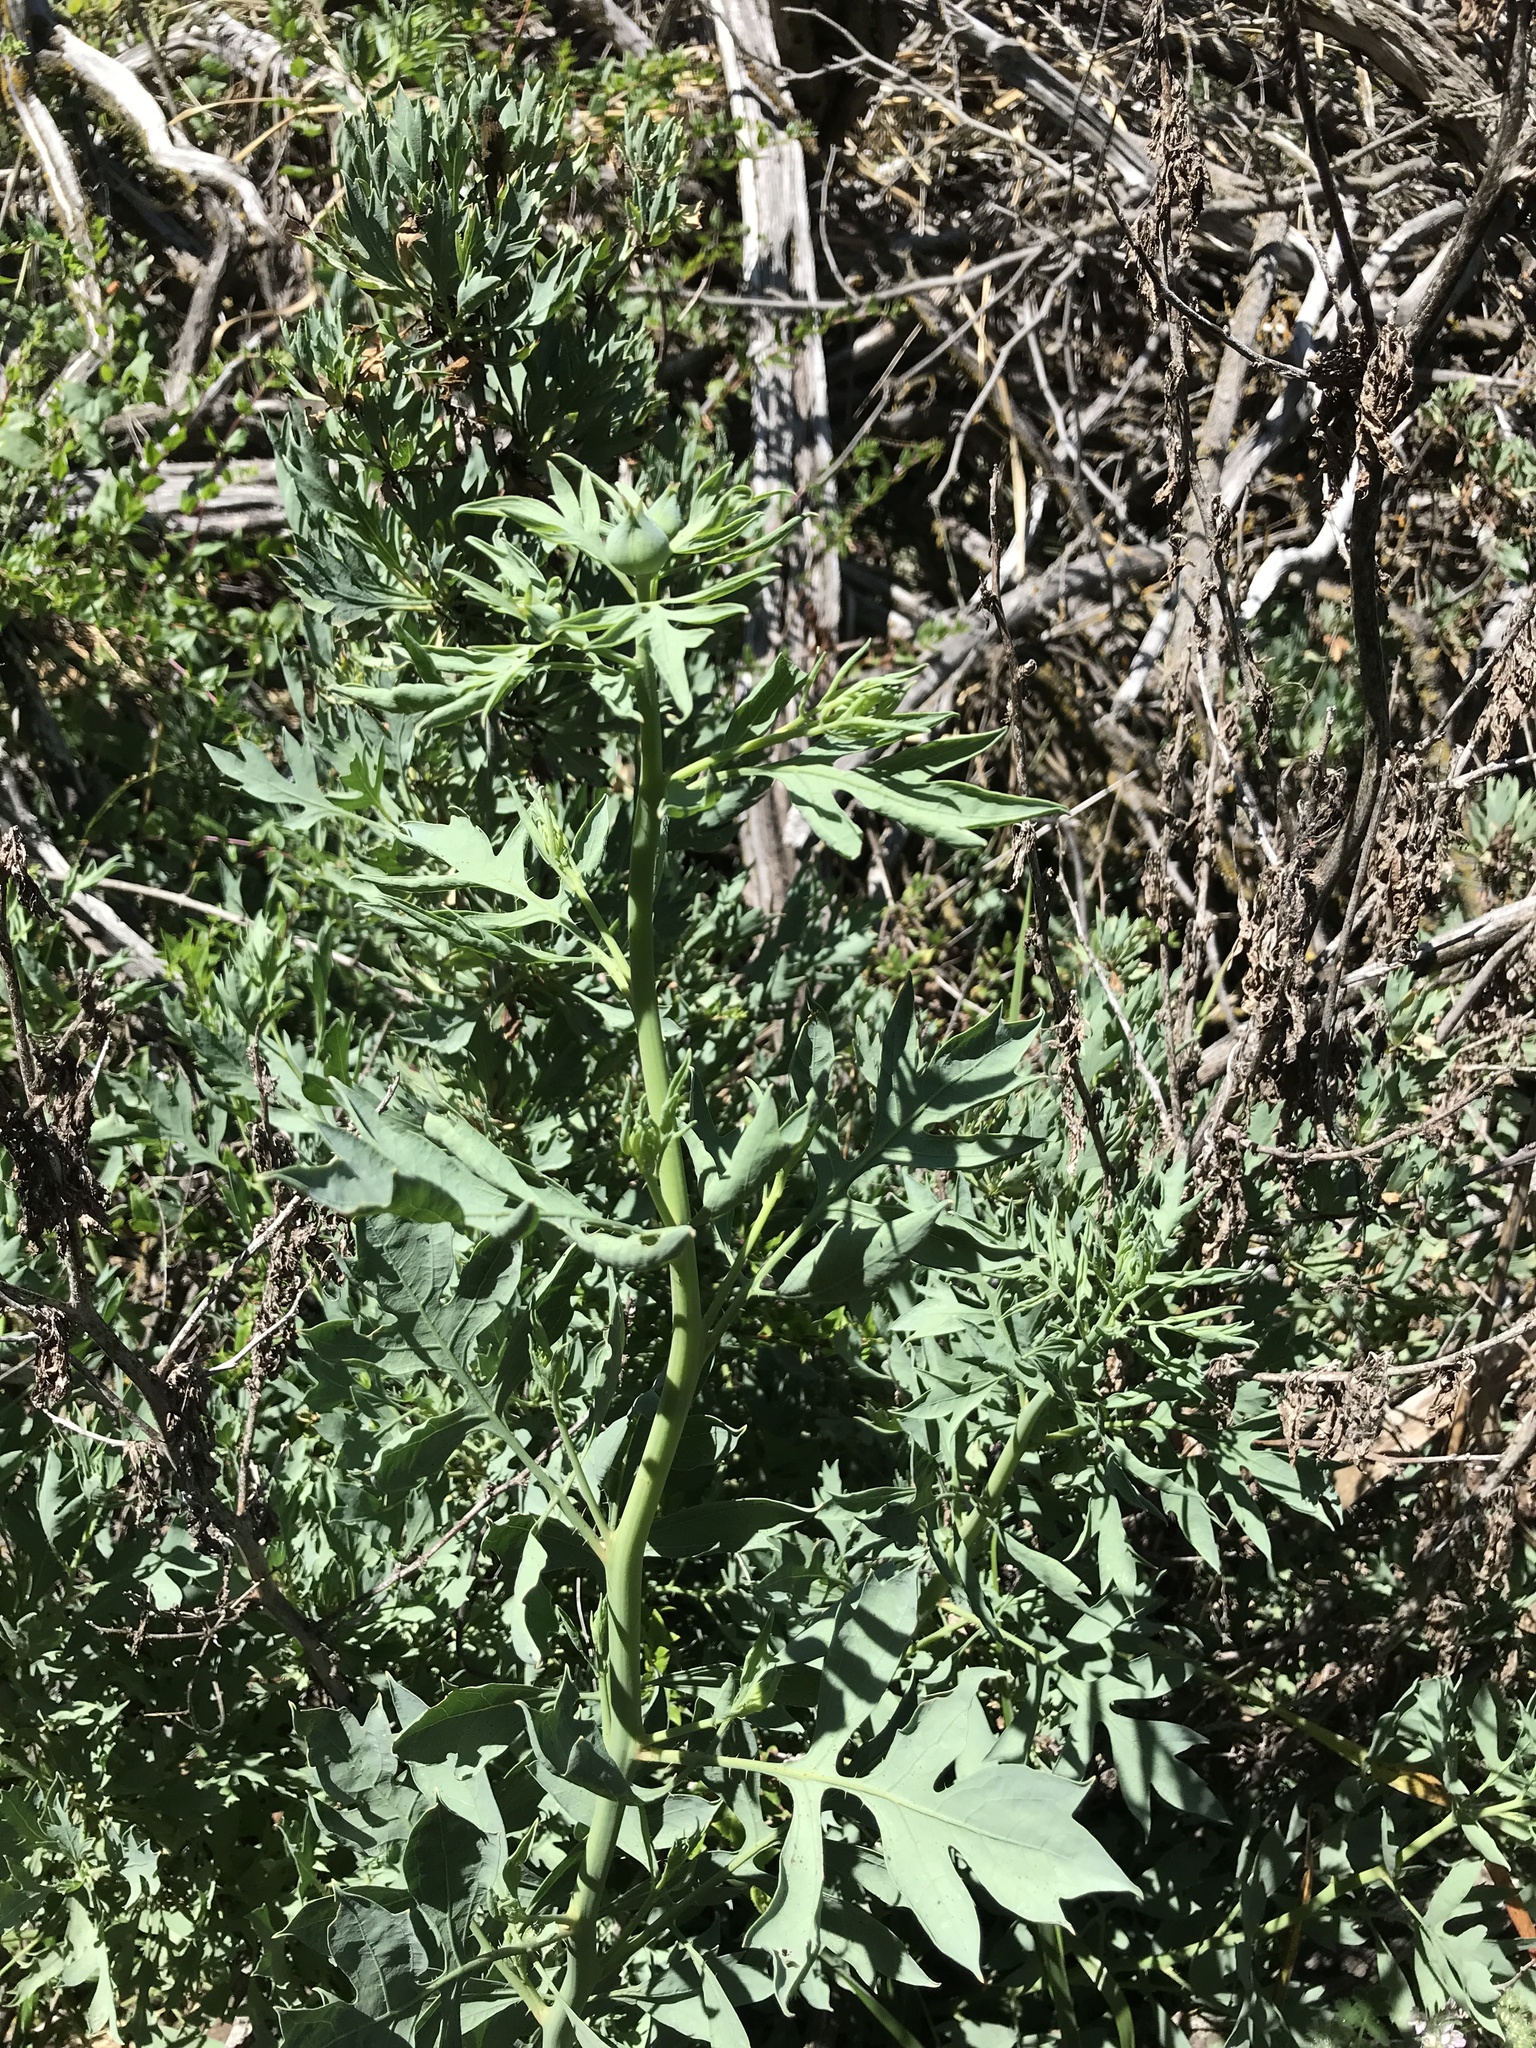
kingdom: Plantae
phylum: Tracheophyta
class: Magnoliopsida
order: Ranunculales
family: Papaveraceae
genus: Romneya
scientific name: Romneya coulteri
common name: California tree-poppy
